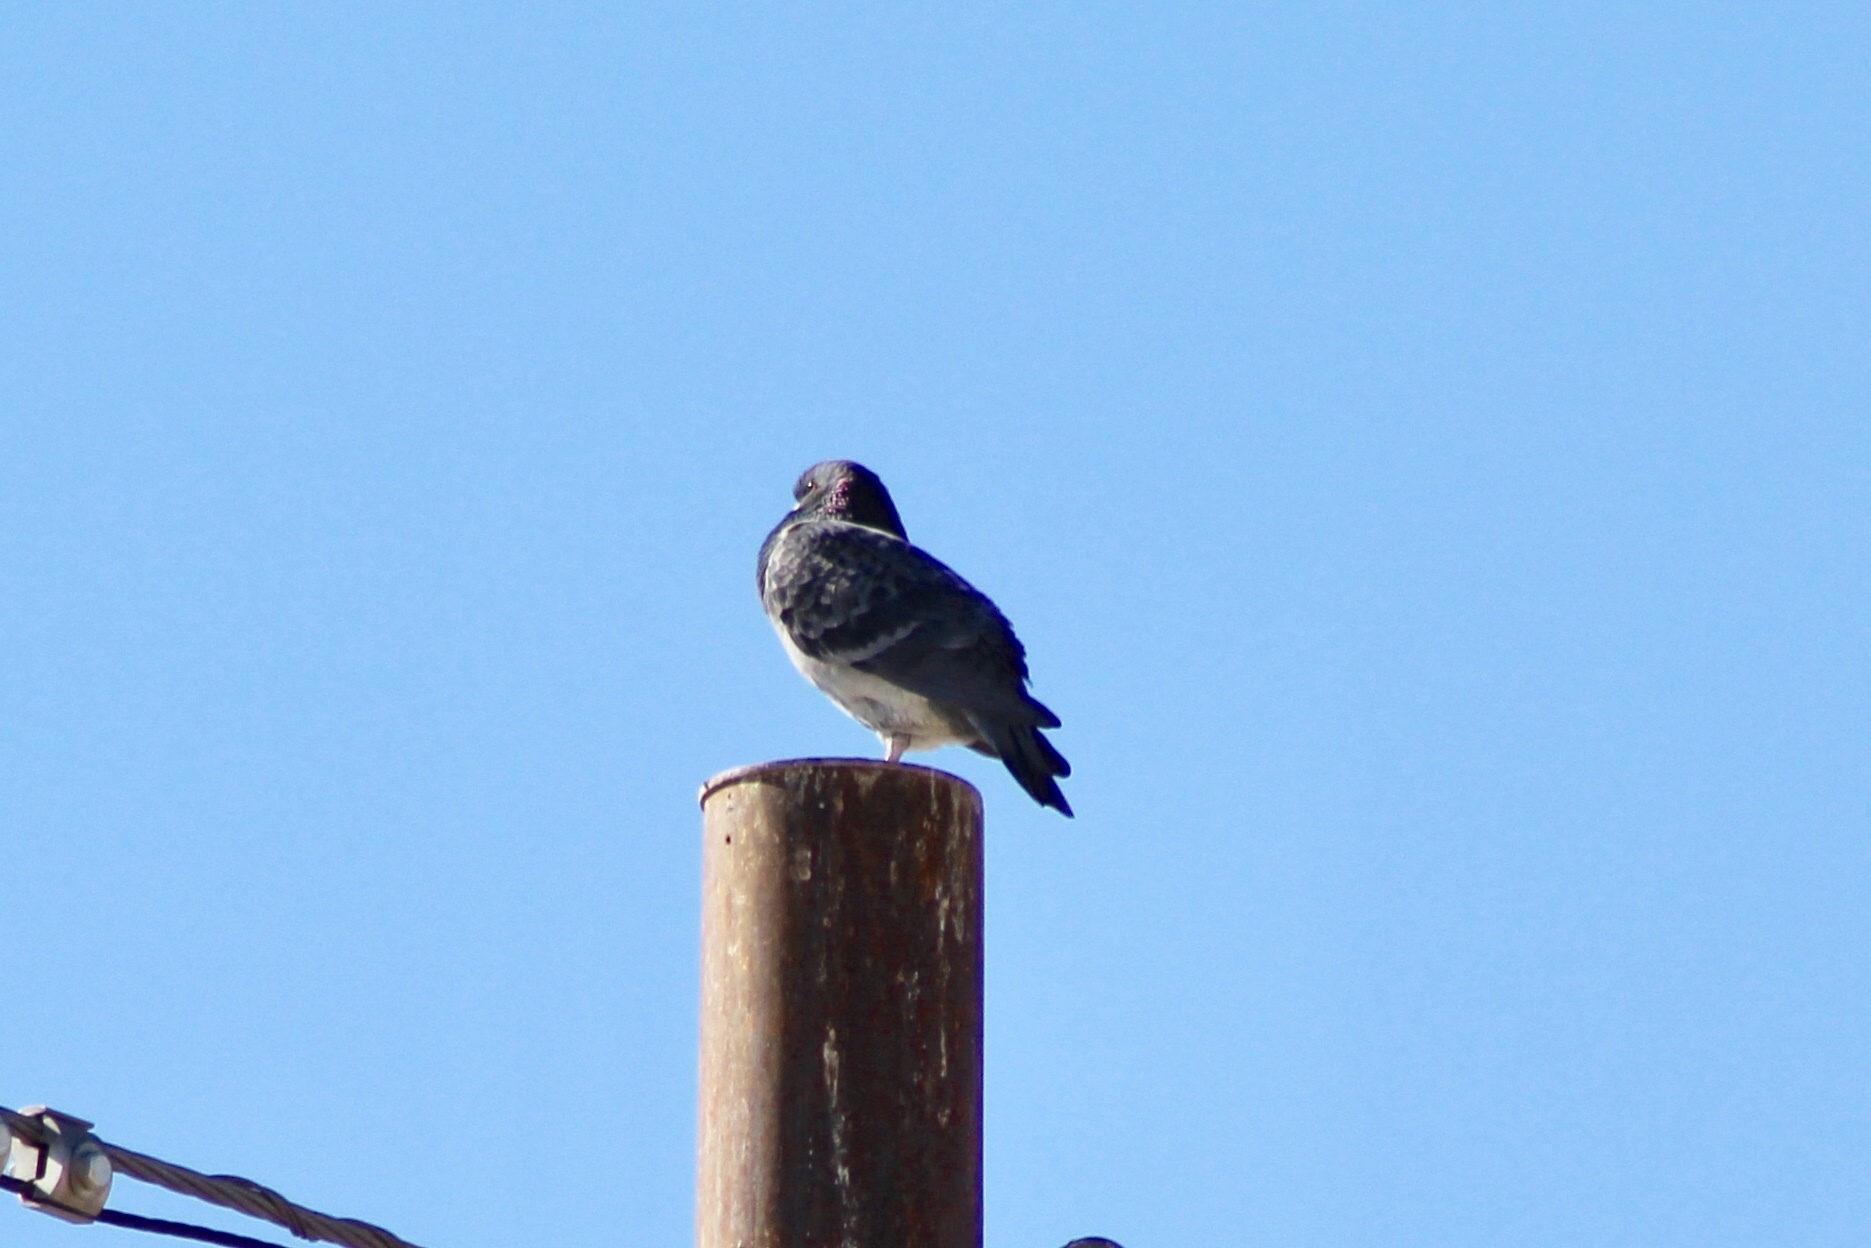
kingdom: Animalia
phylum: Chordata
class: Aves
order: Columbiformes
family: Columbidae
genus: Columba
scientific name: Columba livia
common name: Rock pigeon
